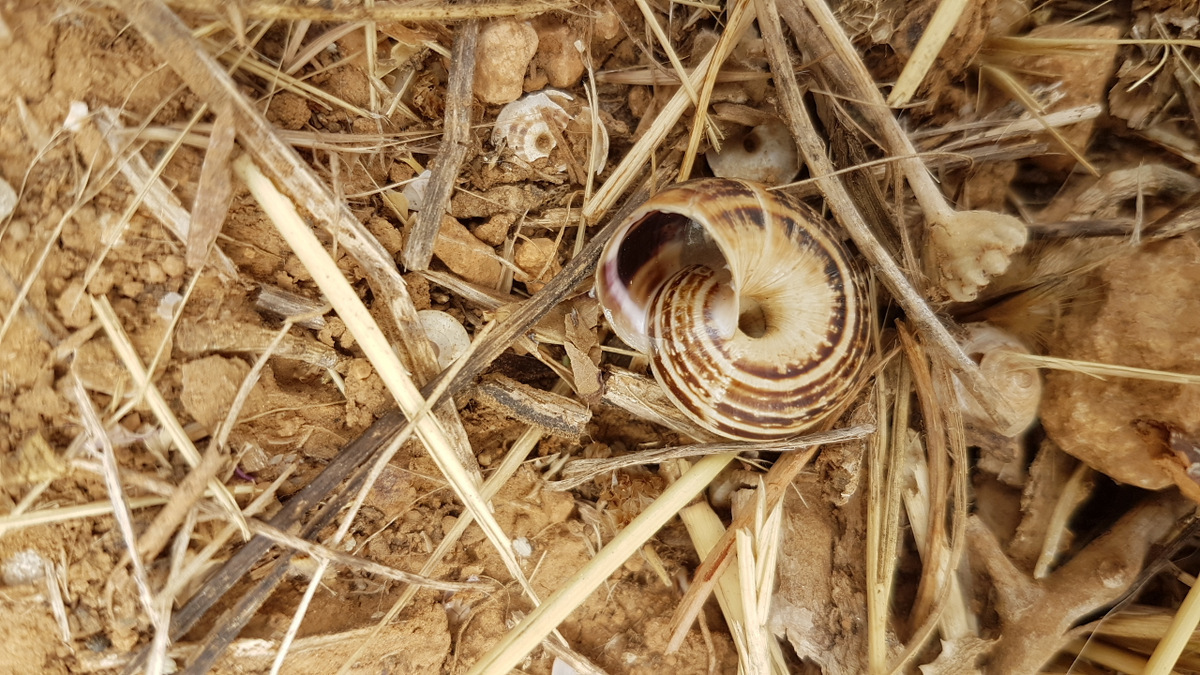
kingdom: Animalia
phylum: Mollusca
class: Gastropoda
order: Stylommatophora
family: Geomitridae
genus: Xerosecta
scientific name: Xerosecta arigonis
